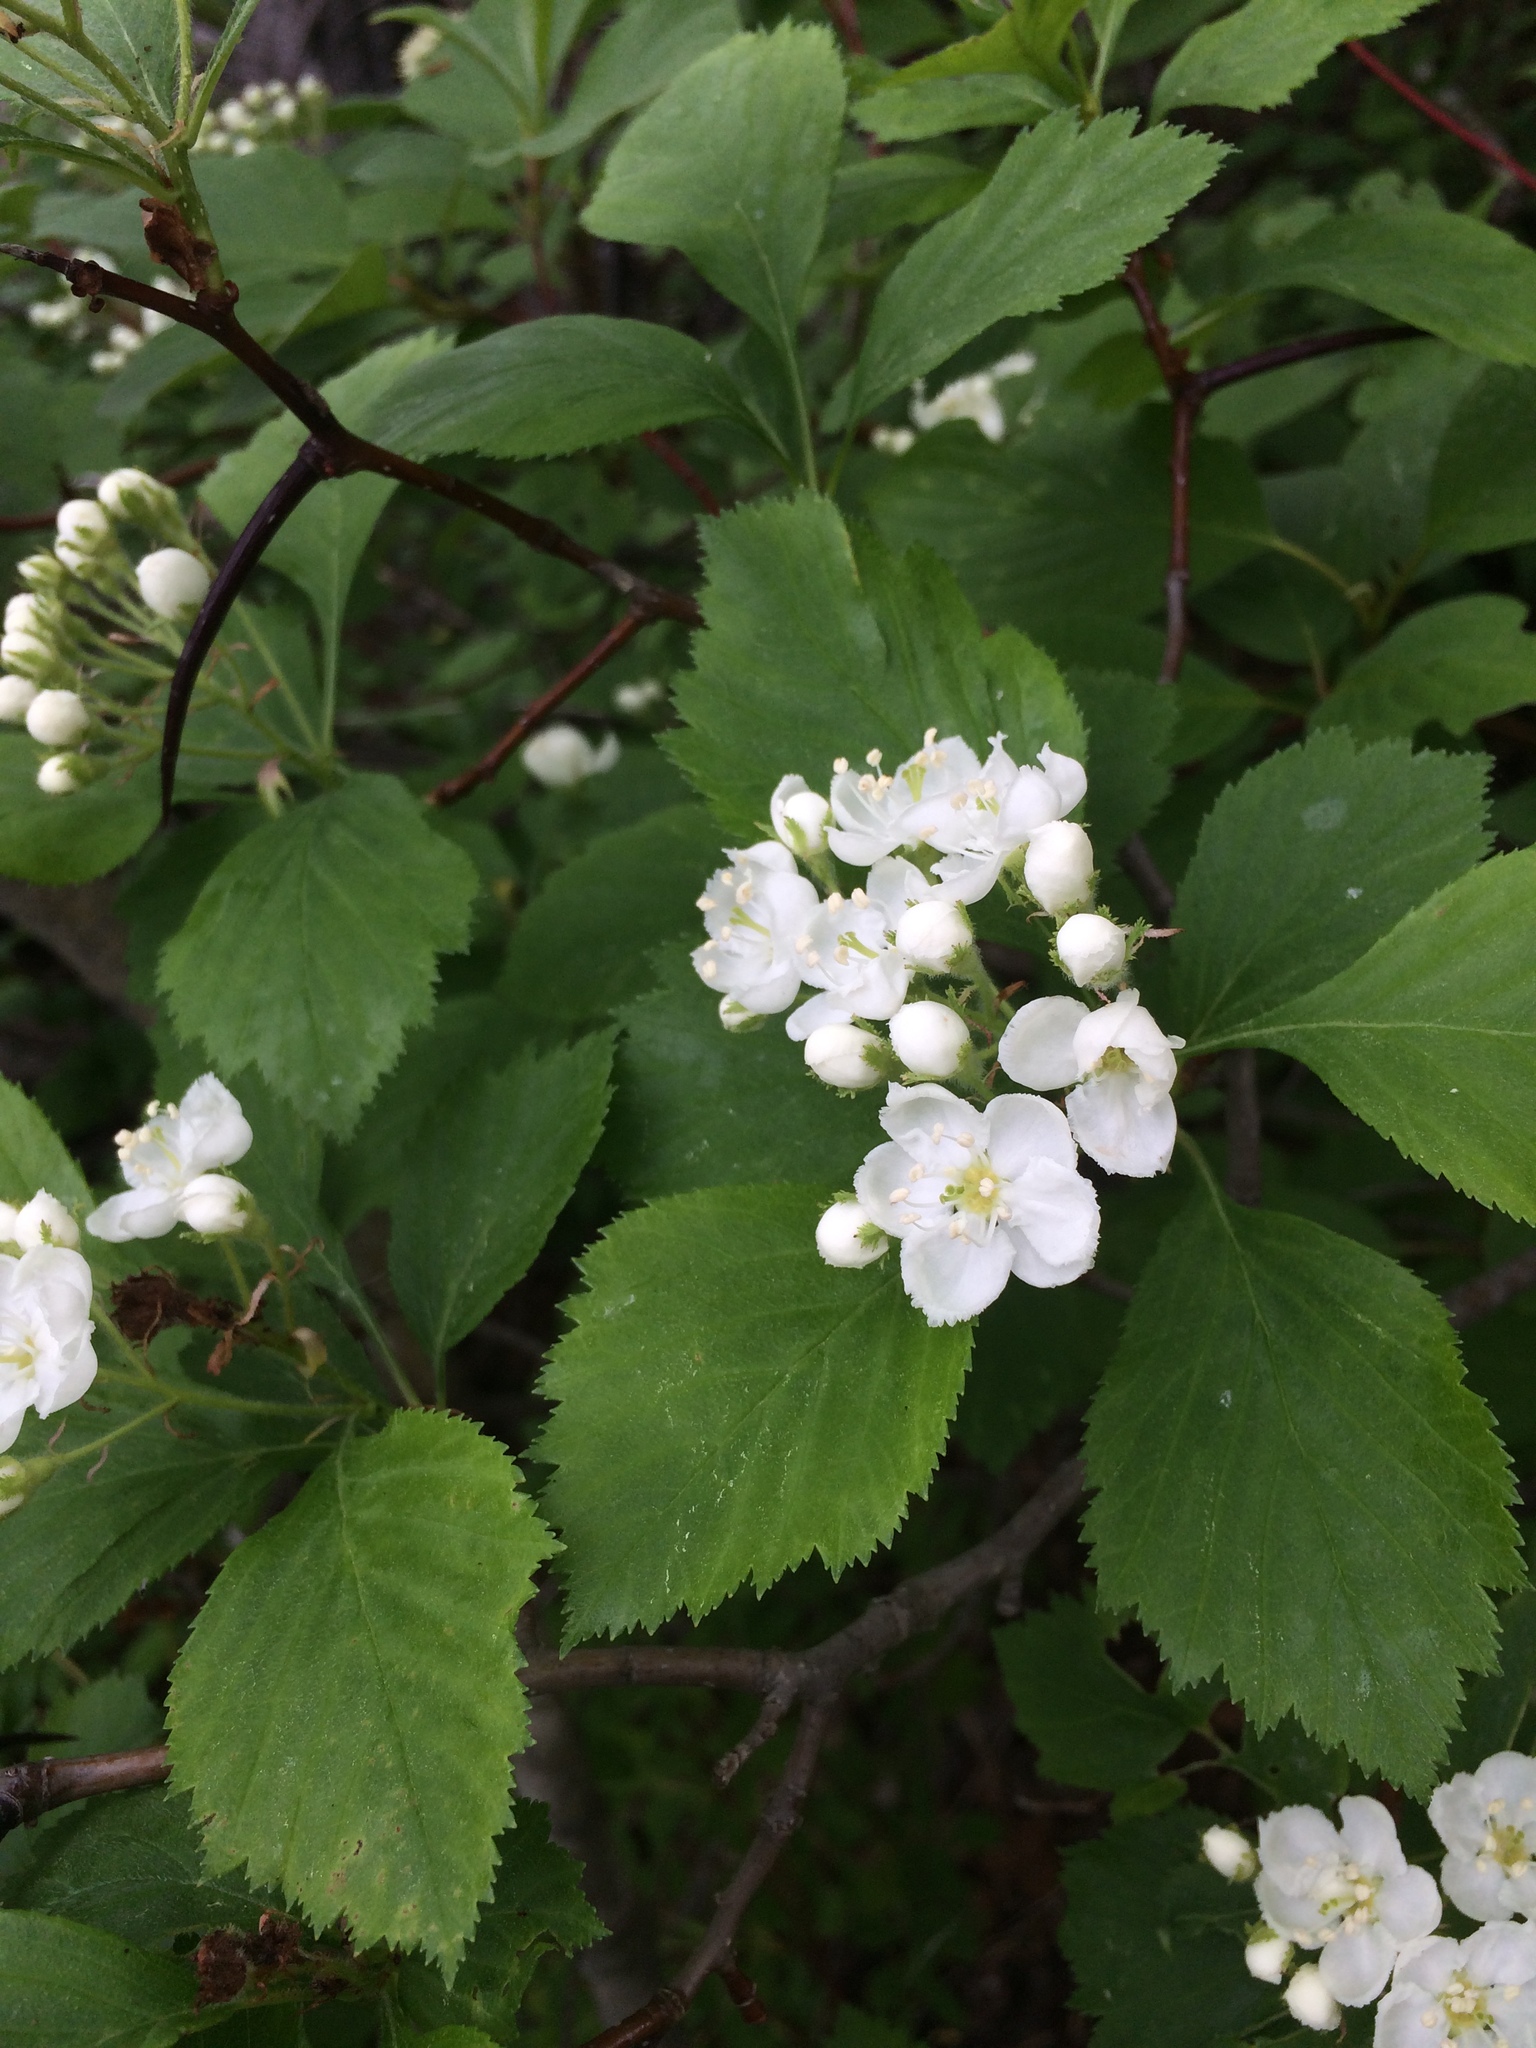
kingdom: Plantae
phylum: Tracheophyta
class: Magnoliopsida
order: Rosales
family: Rosaceae
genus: Crataegus
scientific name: Crataegus macracantha
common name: Large-thorn hawthorn
